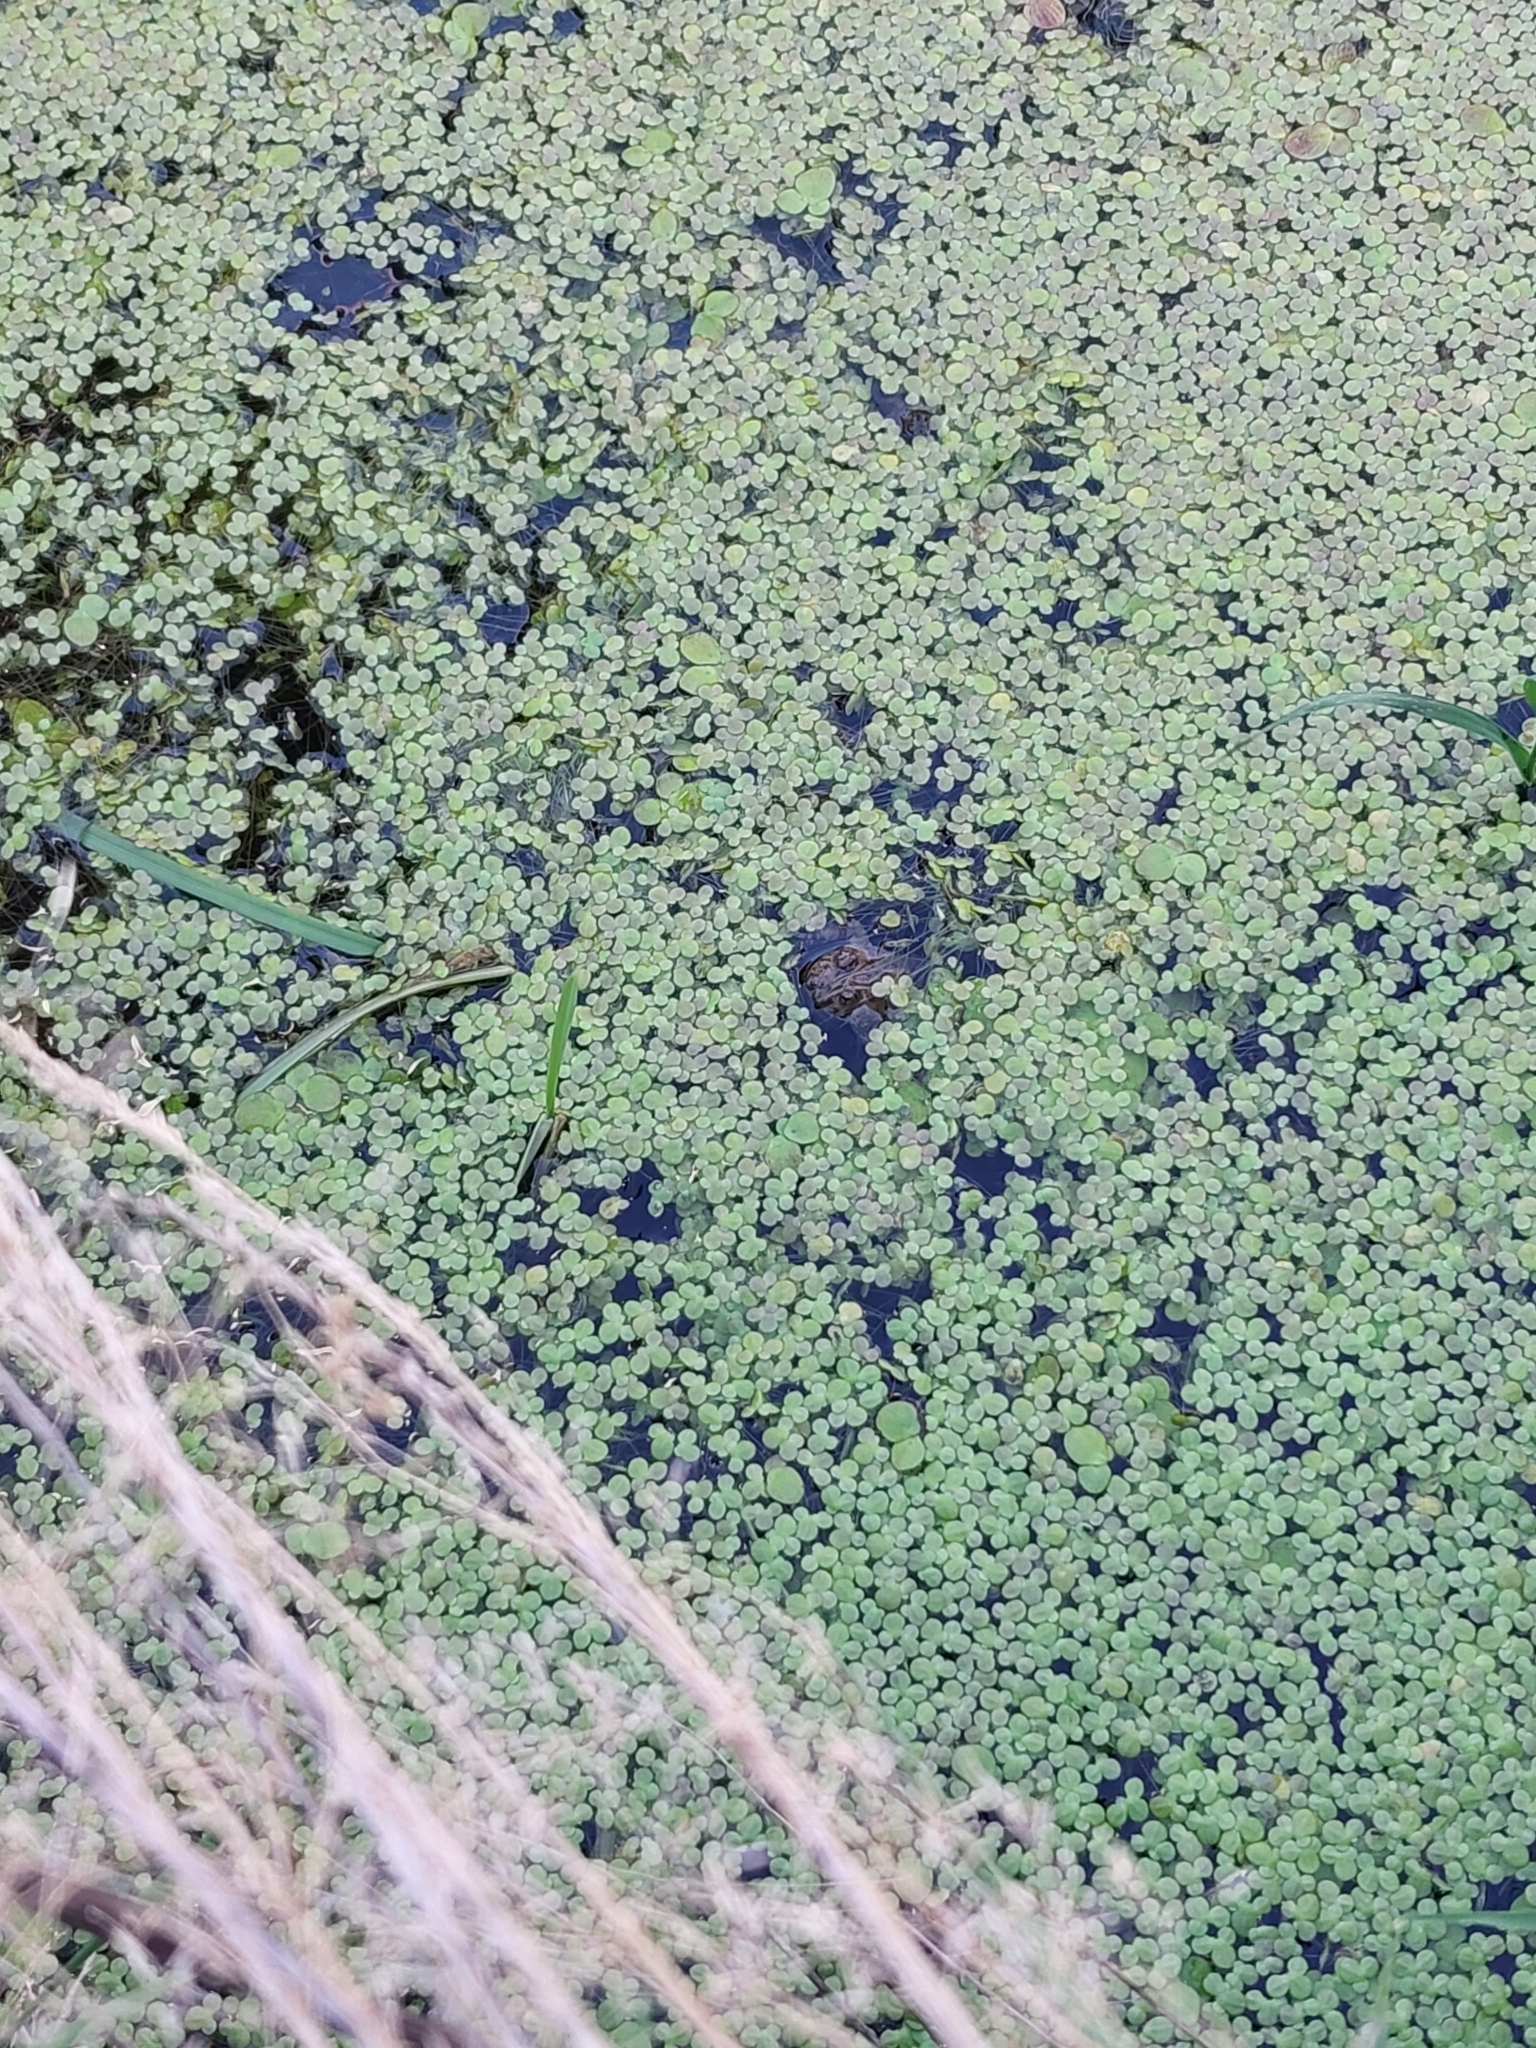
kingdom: Animalia
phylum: Chordata
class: Amphibia
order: Anura
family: Bombinatoridae
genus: Bombina
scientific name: Bombina variegata
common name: Yellow-bellied toad
